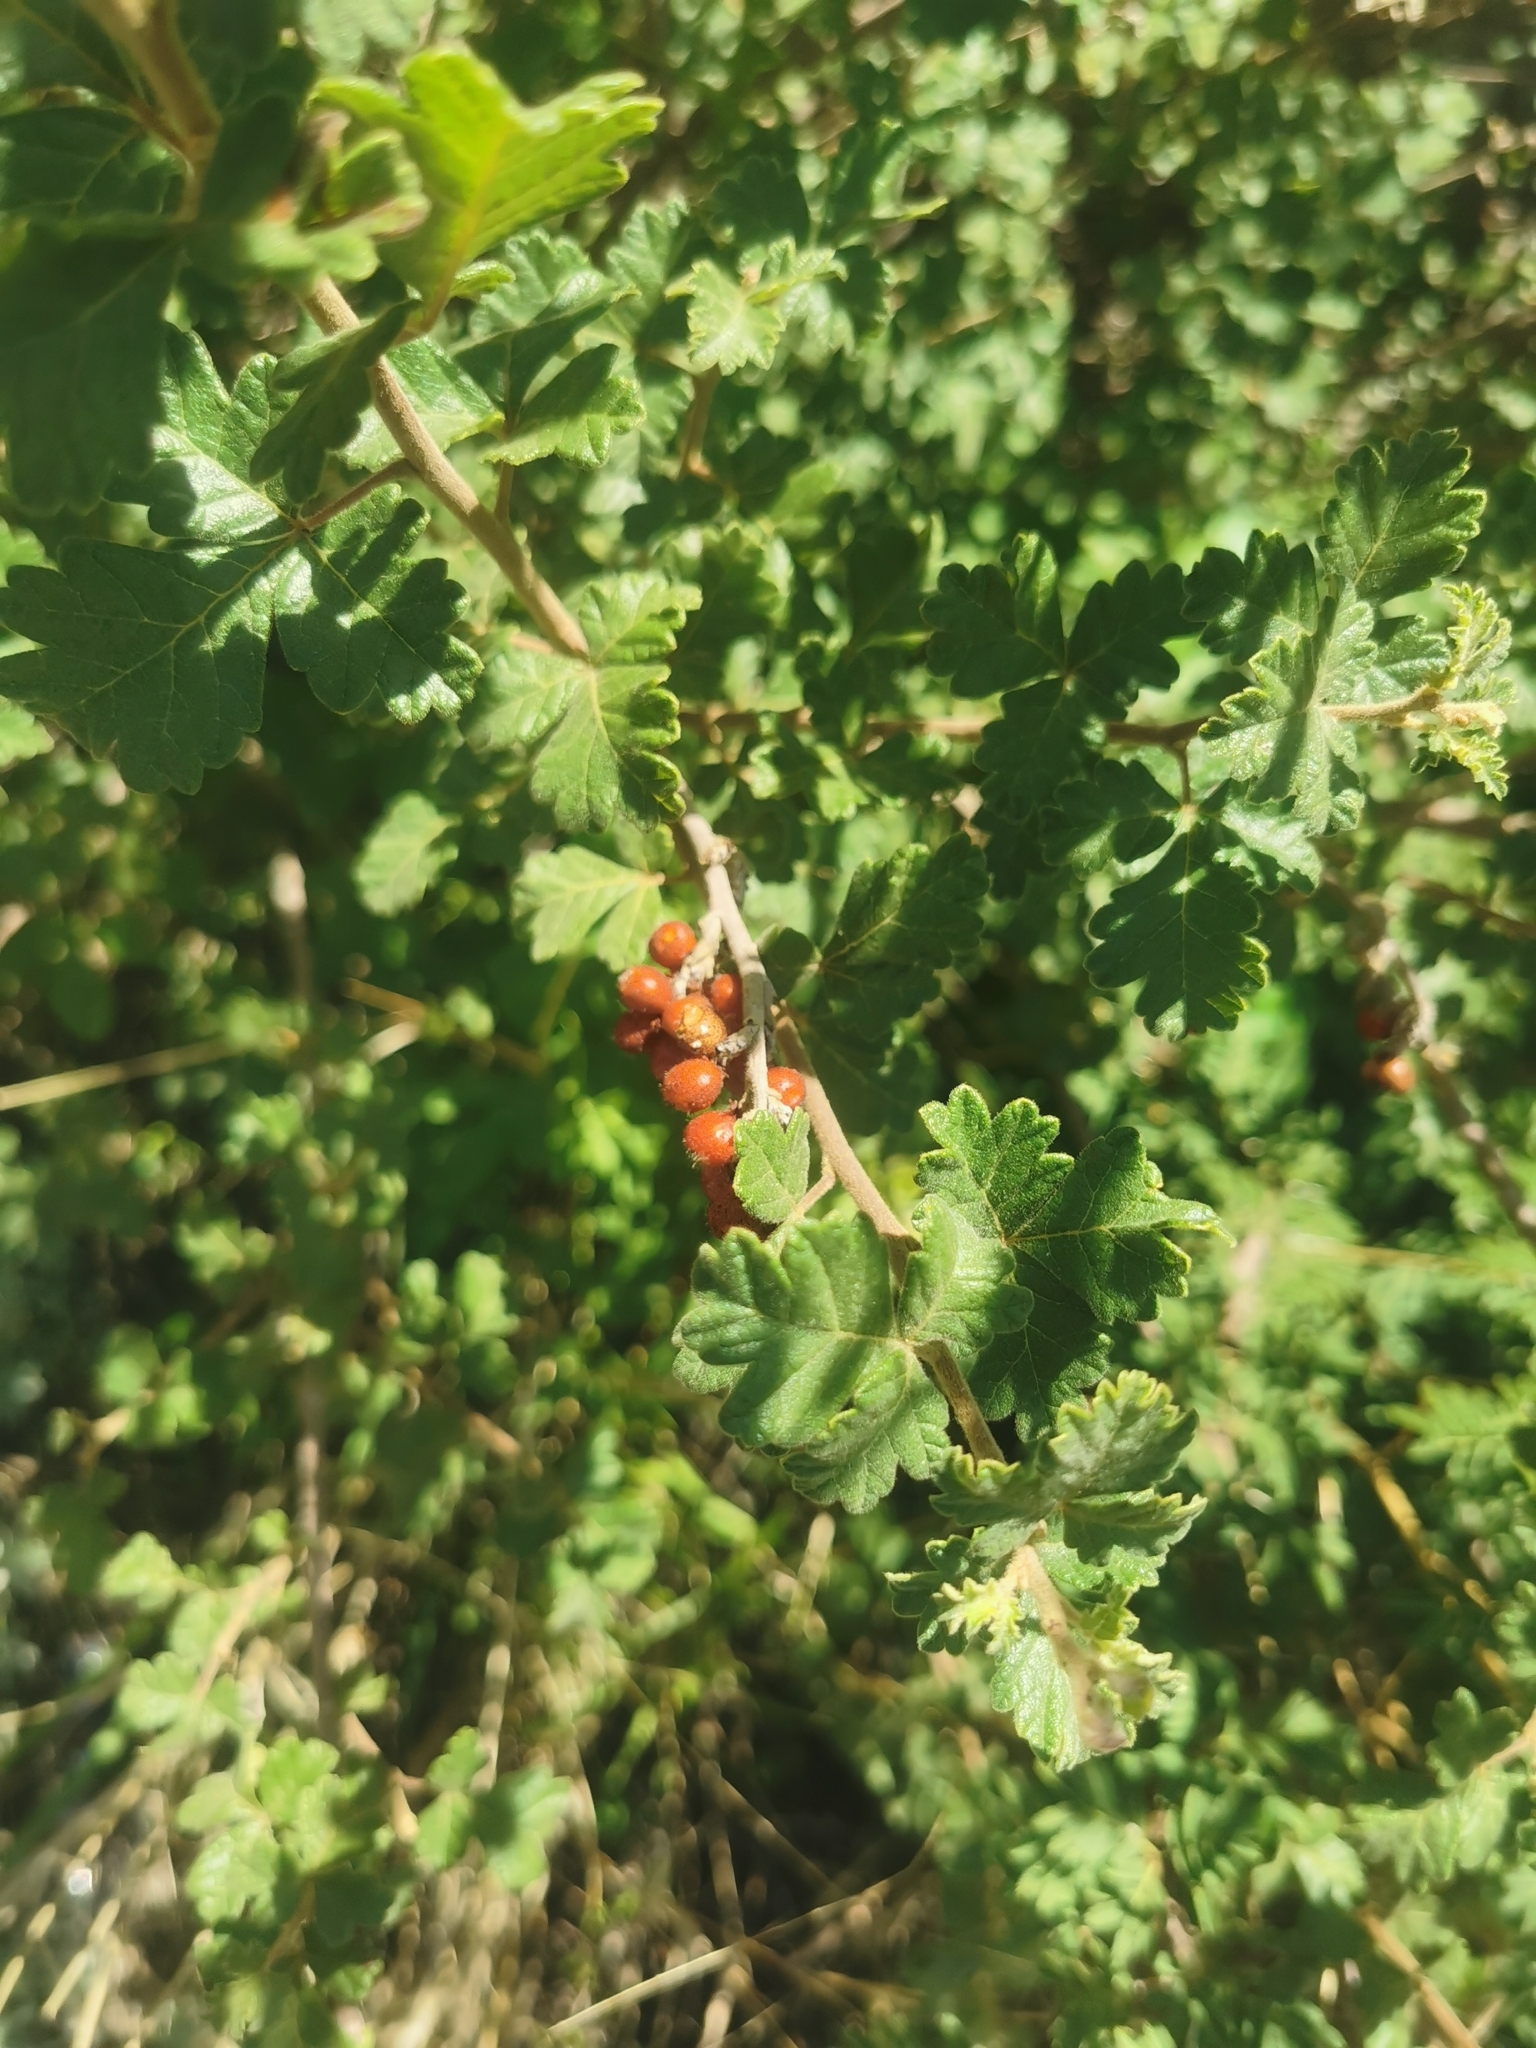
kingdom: Plantae
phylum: Tracheophyta
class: Magnoliopsida
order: Sapindales
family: Anacardiaceae
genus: Rhus
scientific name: Rhus trilobata
